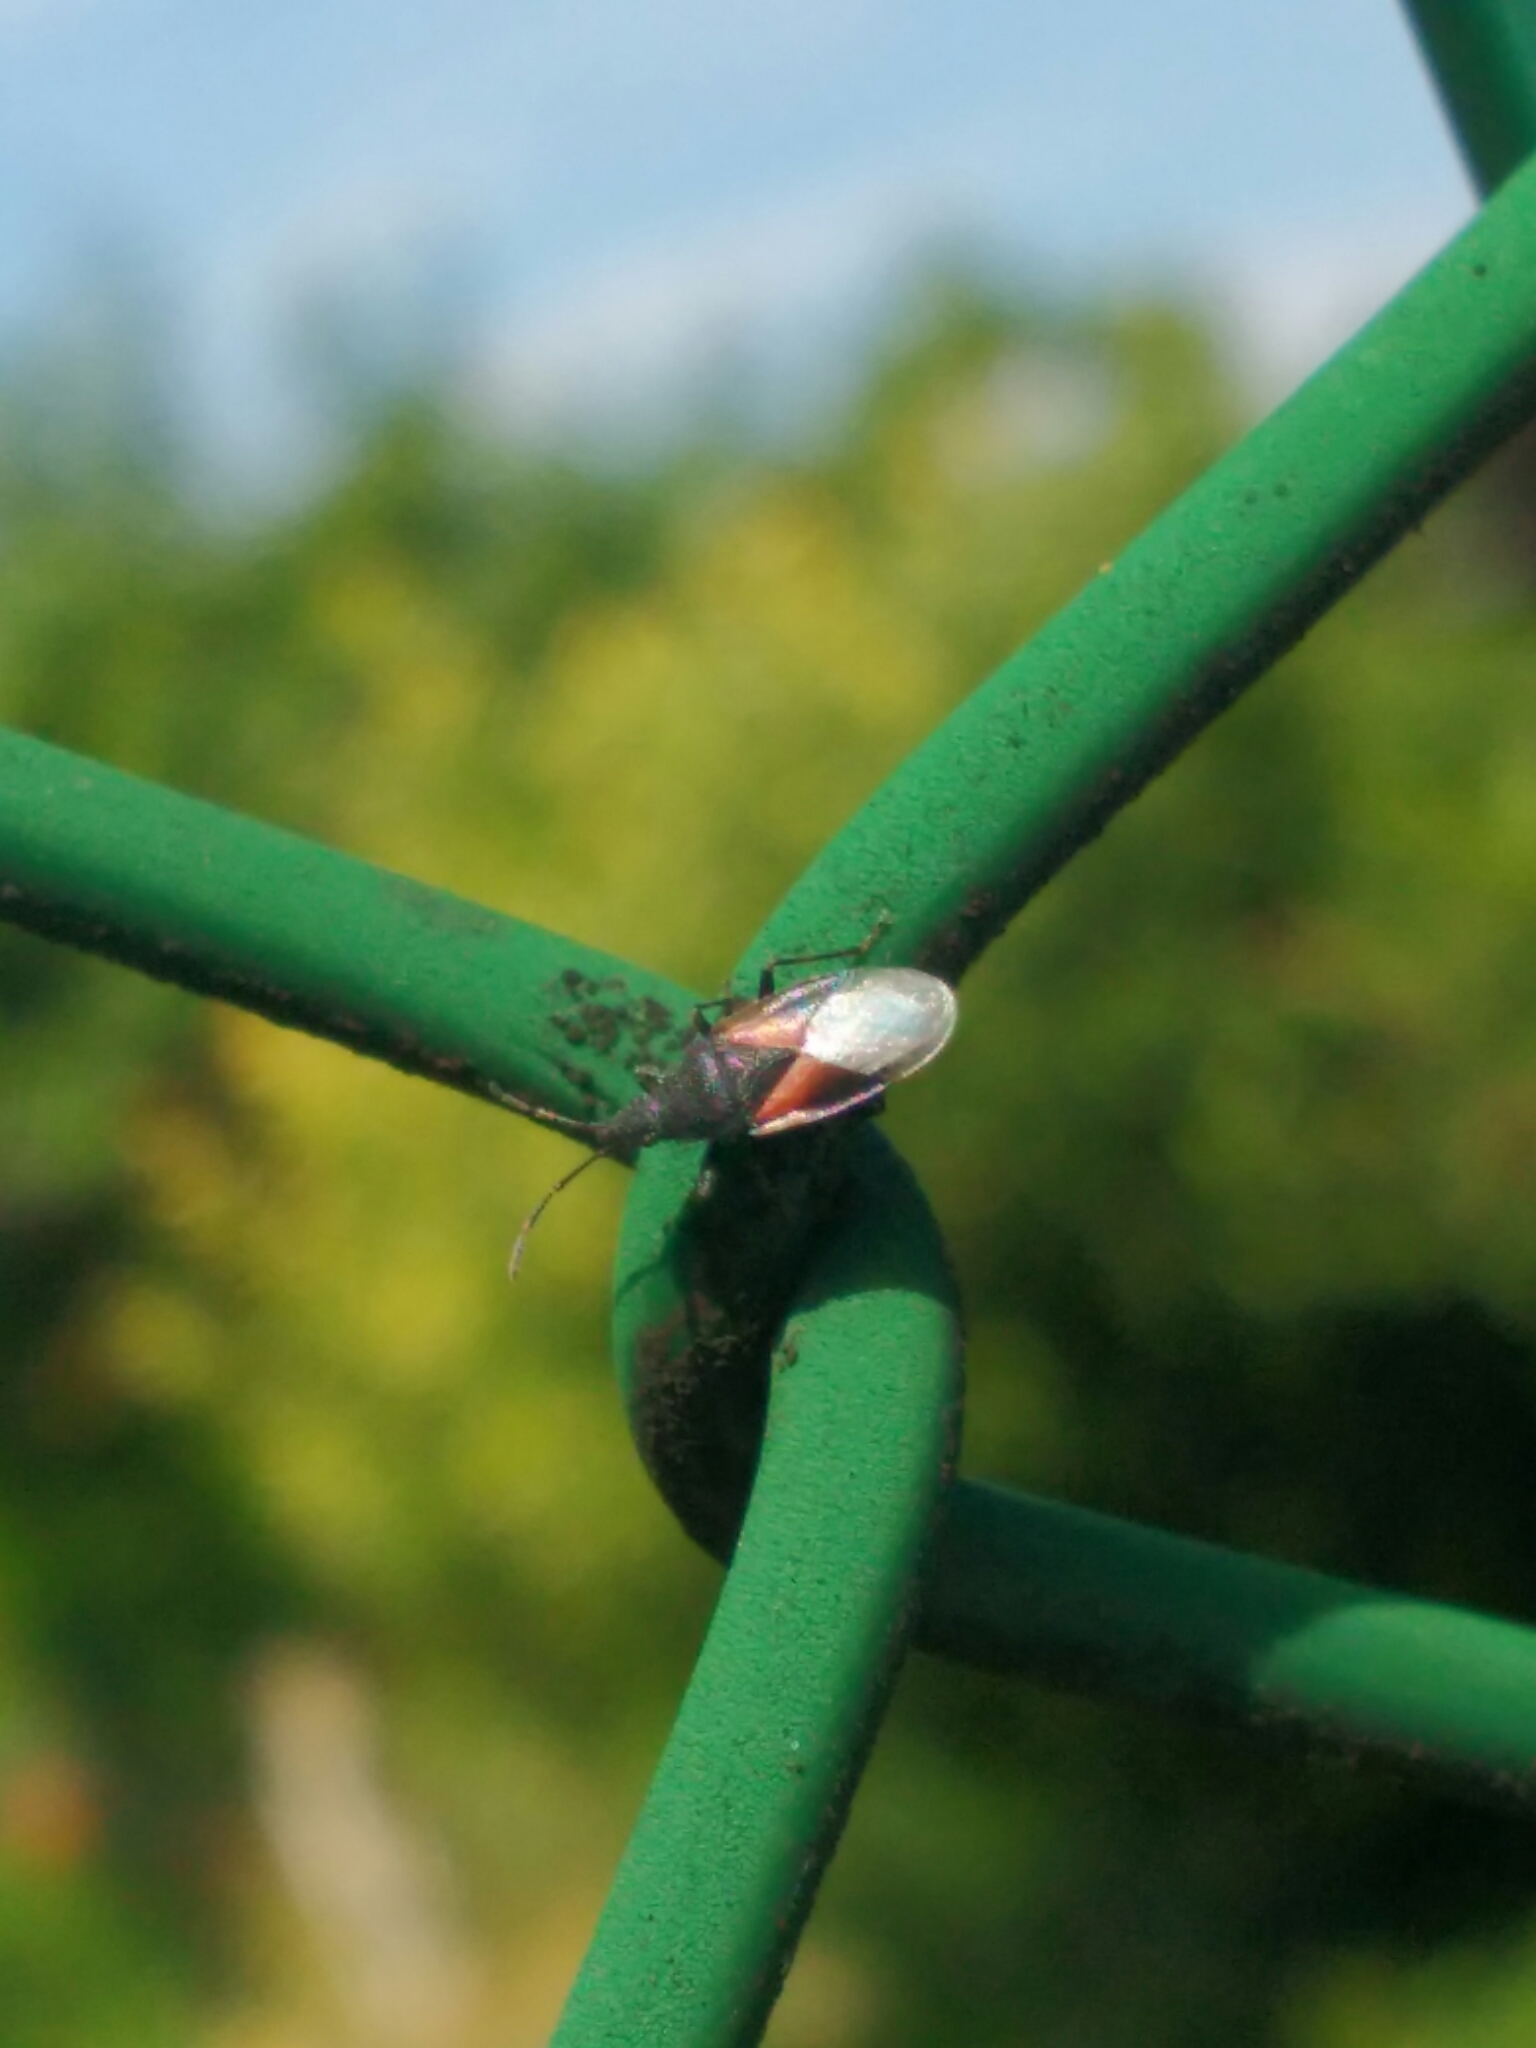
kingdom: Animalia
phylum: Arthropoda
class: Insecta
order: Hemiptera
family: Oxycarenidae
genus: Oxycarenus
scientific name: Oxycarenus lavaterae
